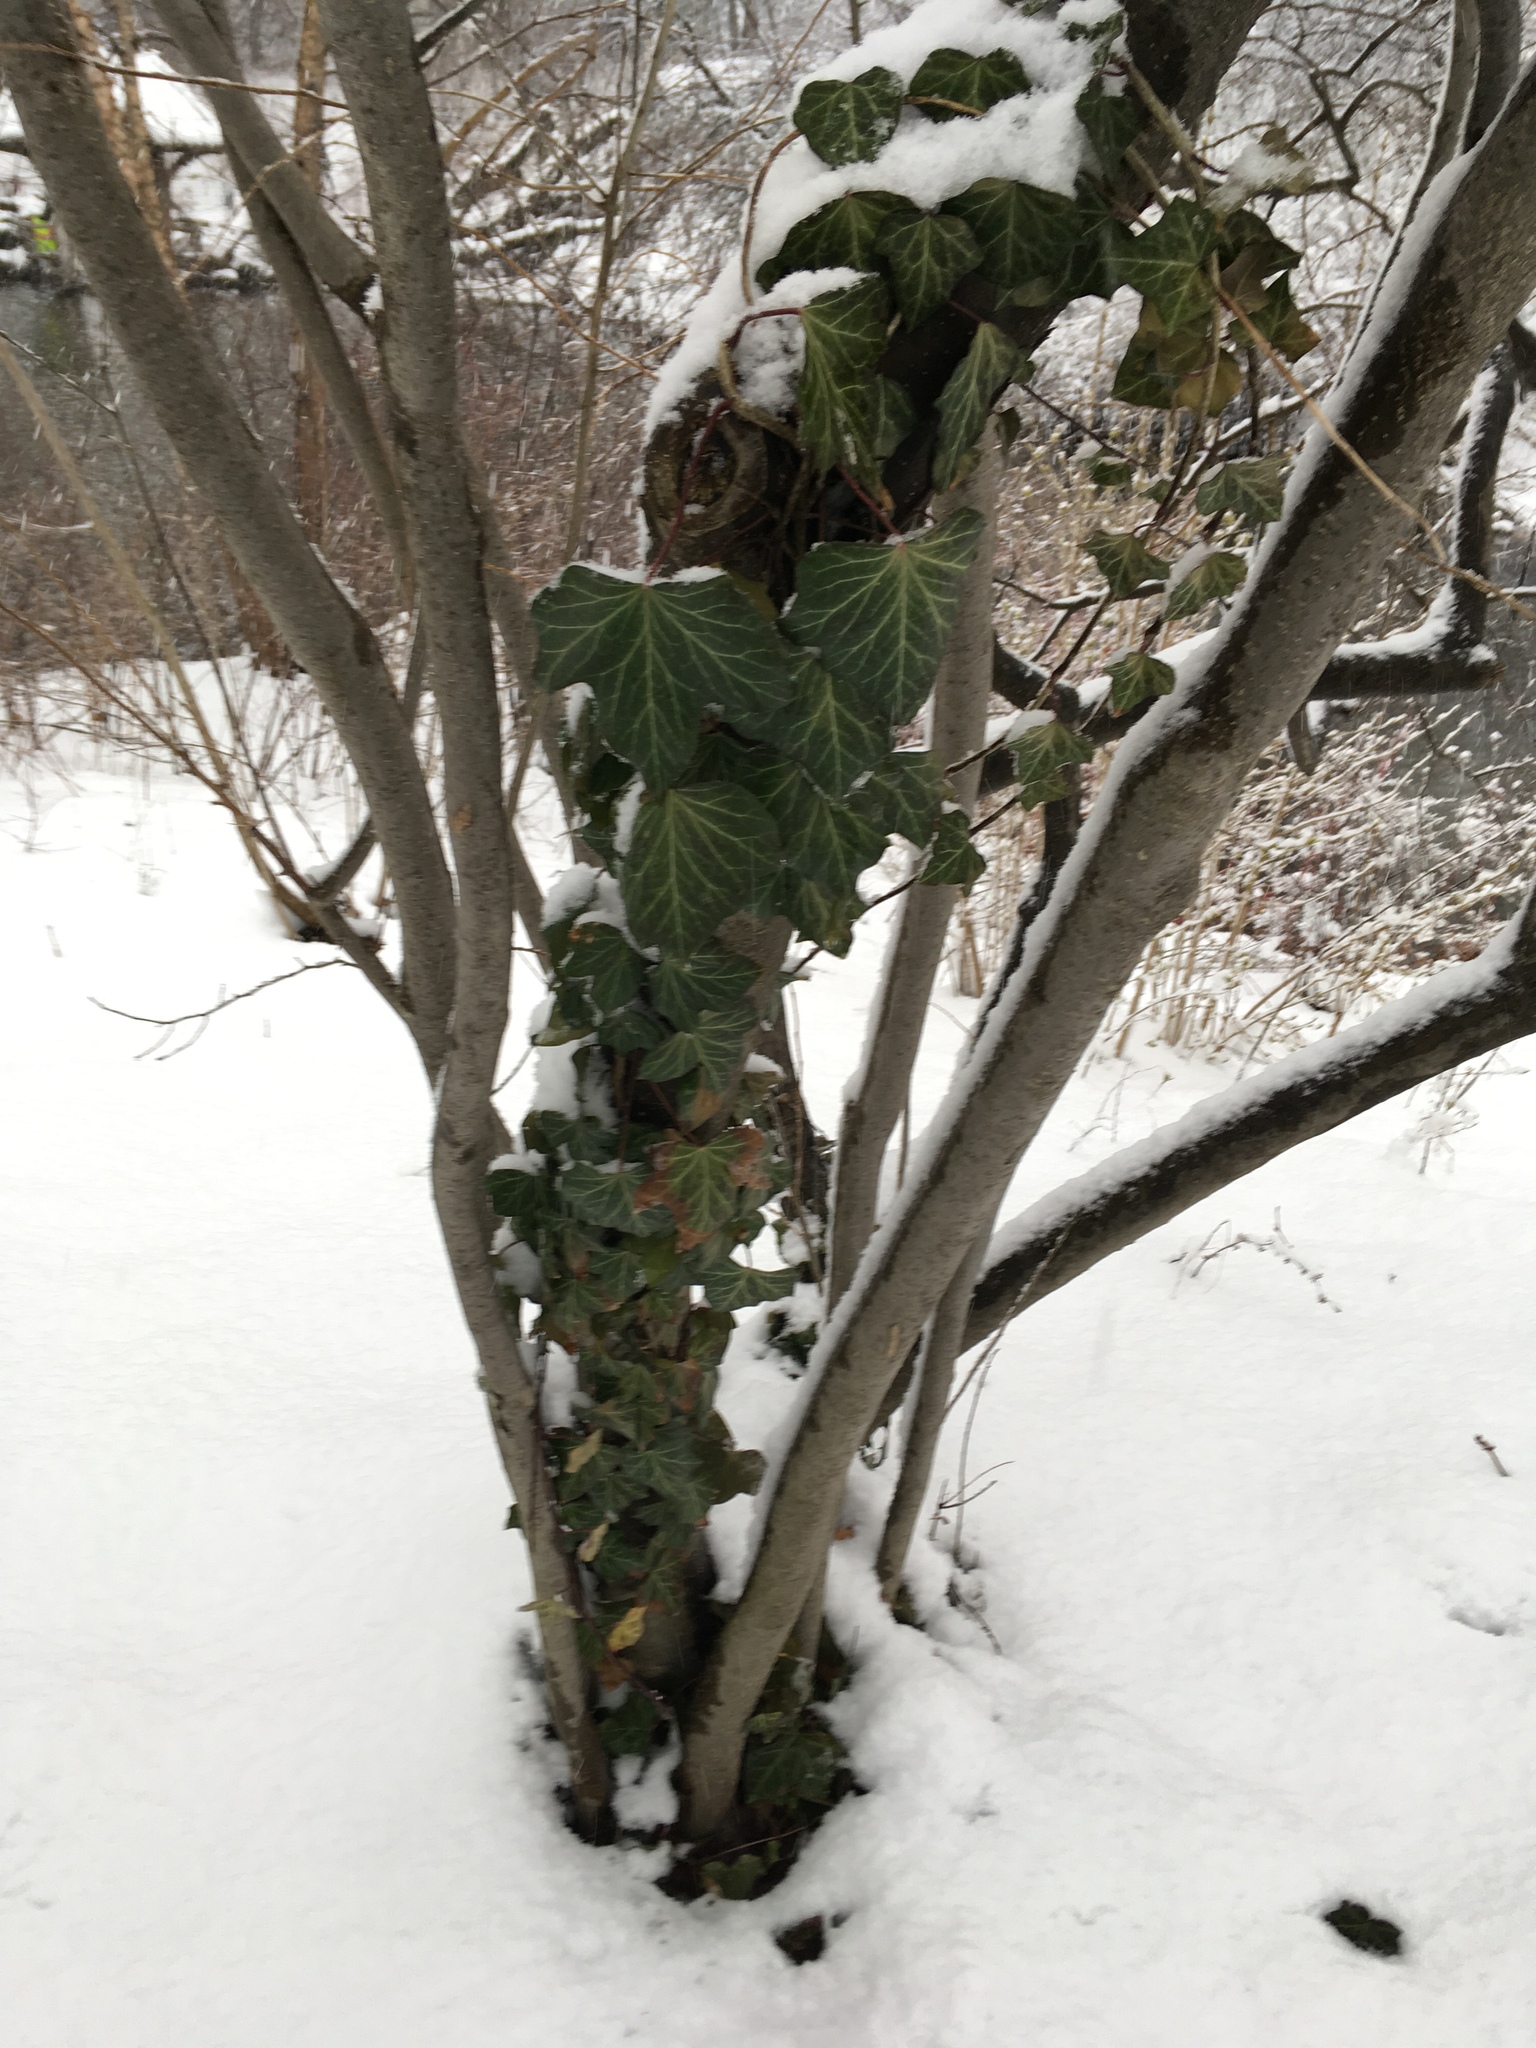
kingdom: Plantae
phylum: Tracheophyta
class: Magnoliopsida
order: Apiales
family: Araliaceae
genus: Hedera
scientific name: Hedera helix
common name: Ivy
